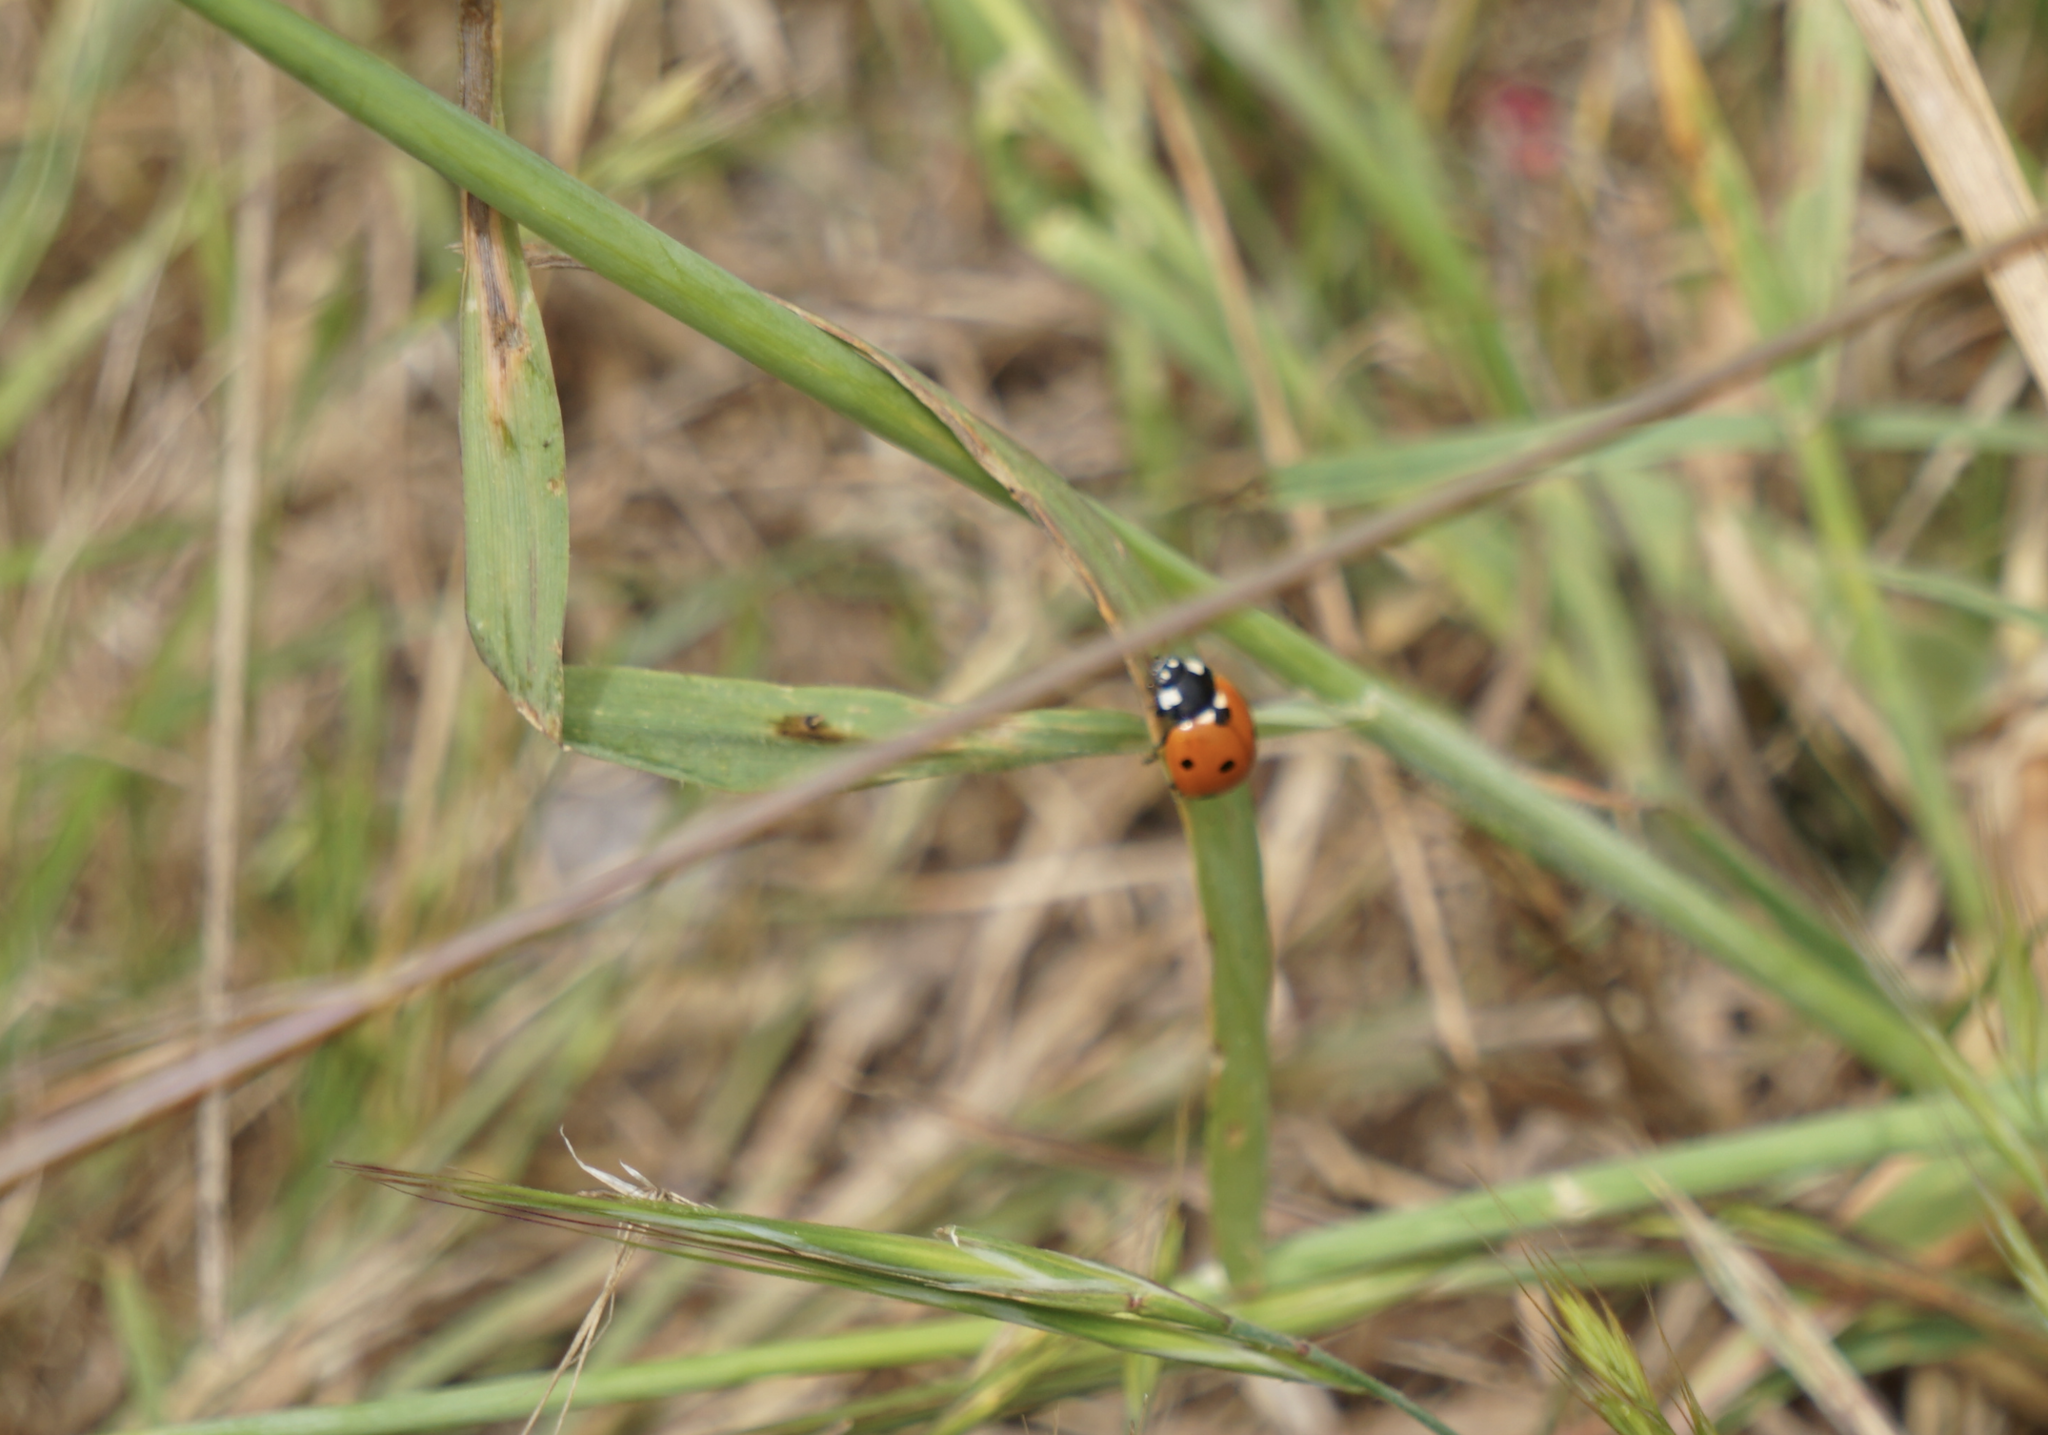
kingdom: Animalia
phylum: Arthropoda
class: Insecta
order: Coleoptera
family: Coccinellidae
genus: Coccinella
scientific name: Coccinella septempunctata
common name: Sevenspotted lady beetle
